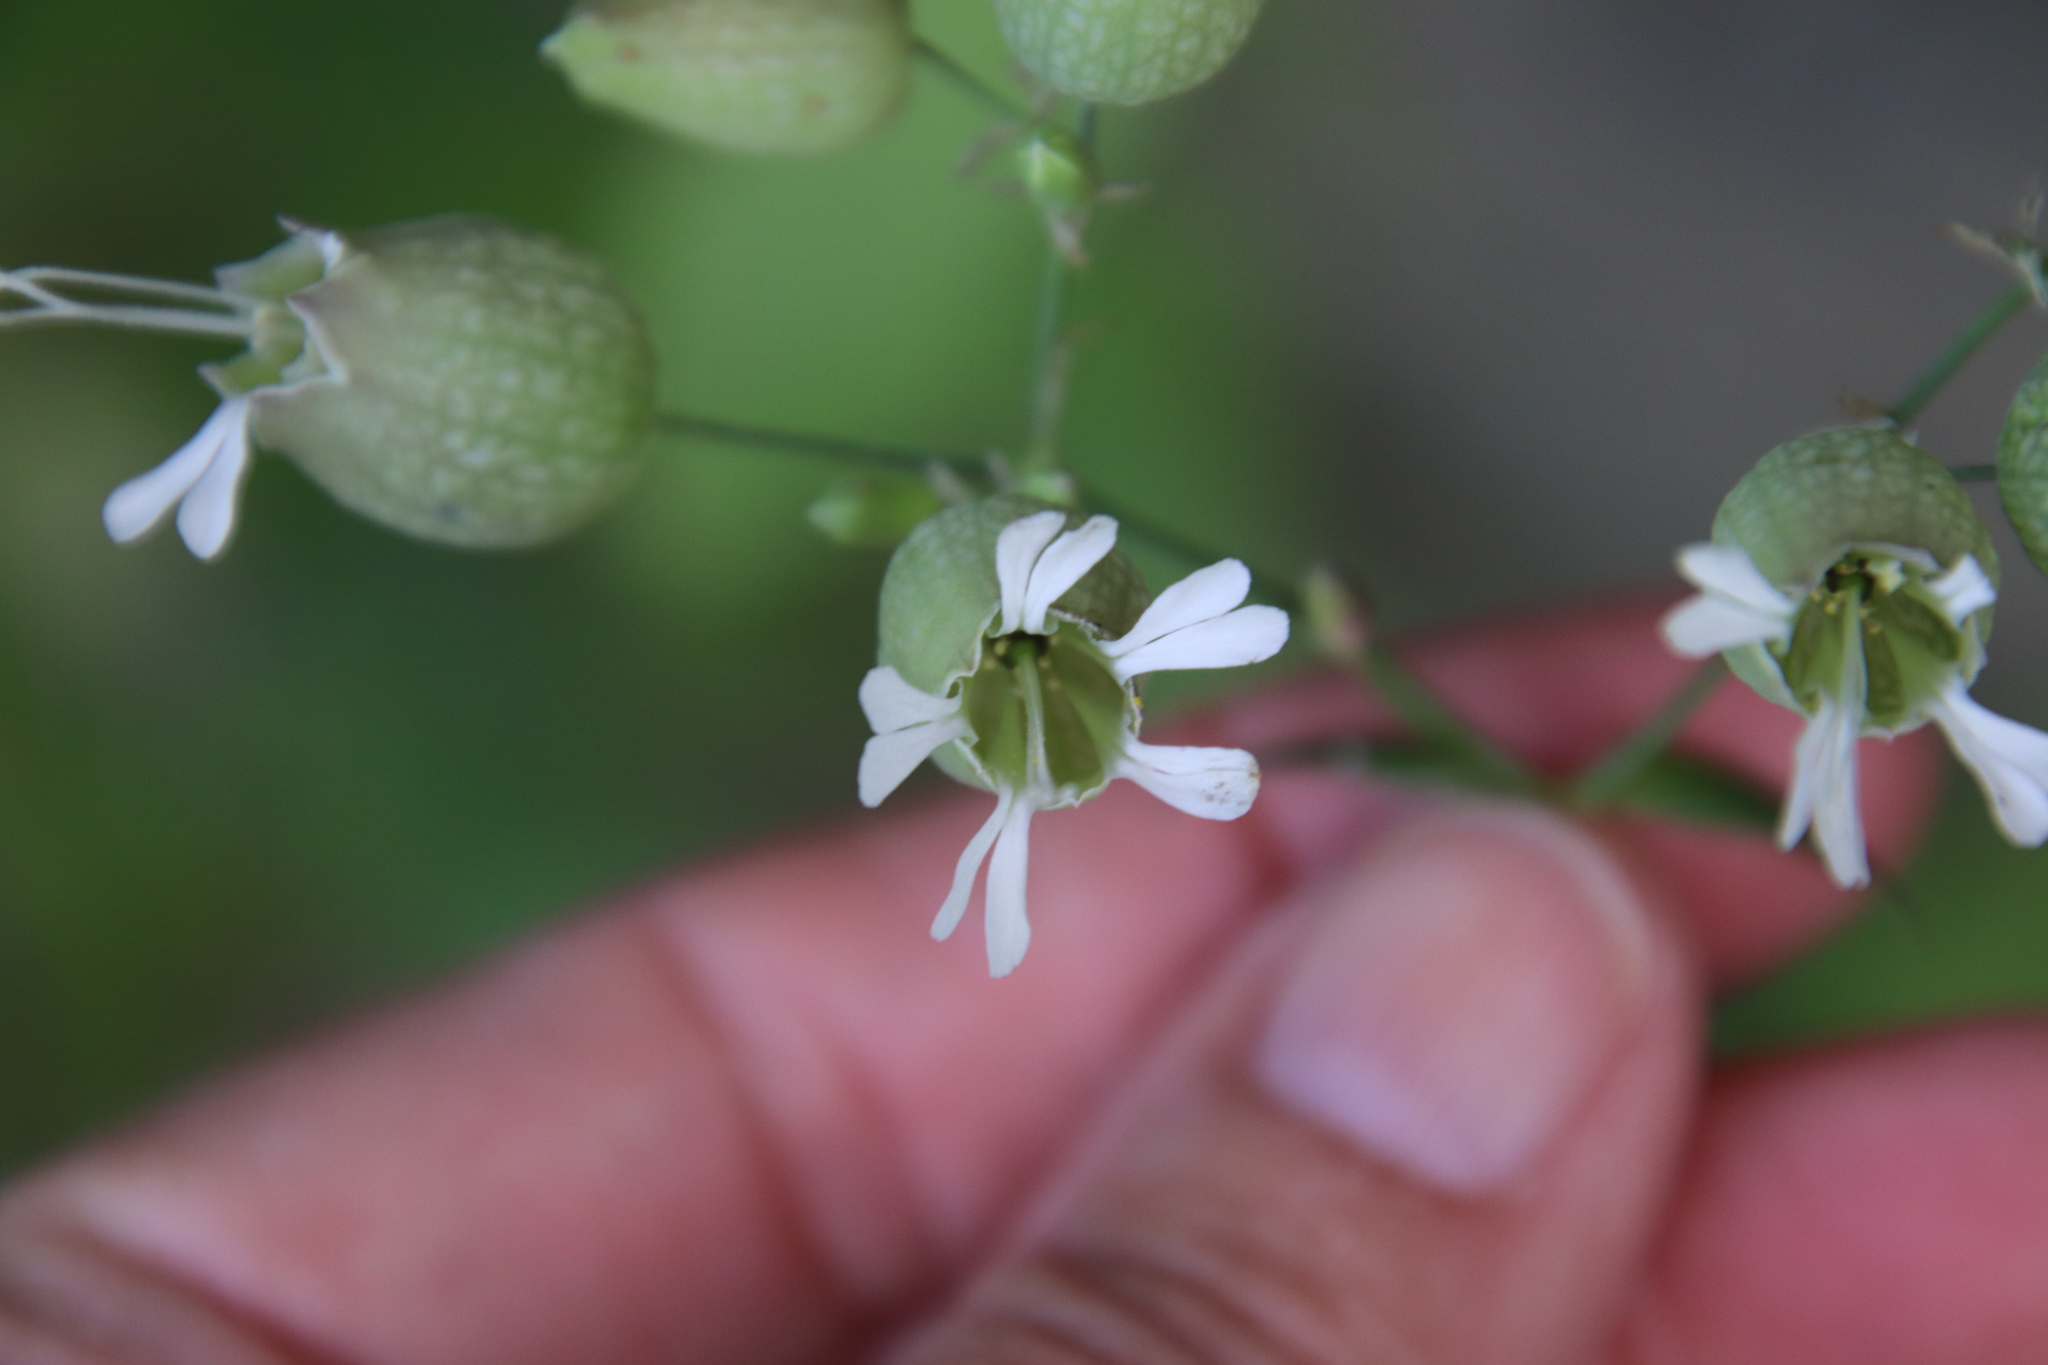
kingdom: Plantae
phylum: Tracheophyta
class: Magnoliopsida
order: Caryophyllales
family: Caryophyllaceae
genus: Silene
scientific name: Silene vulgaris
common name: Bladder campion
